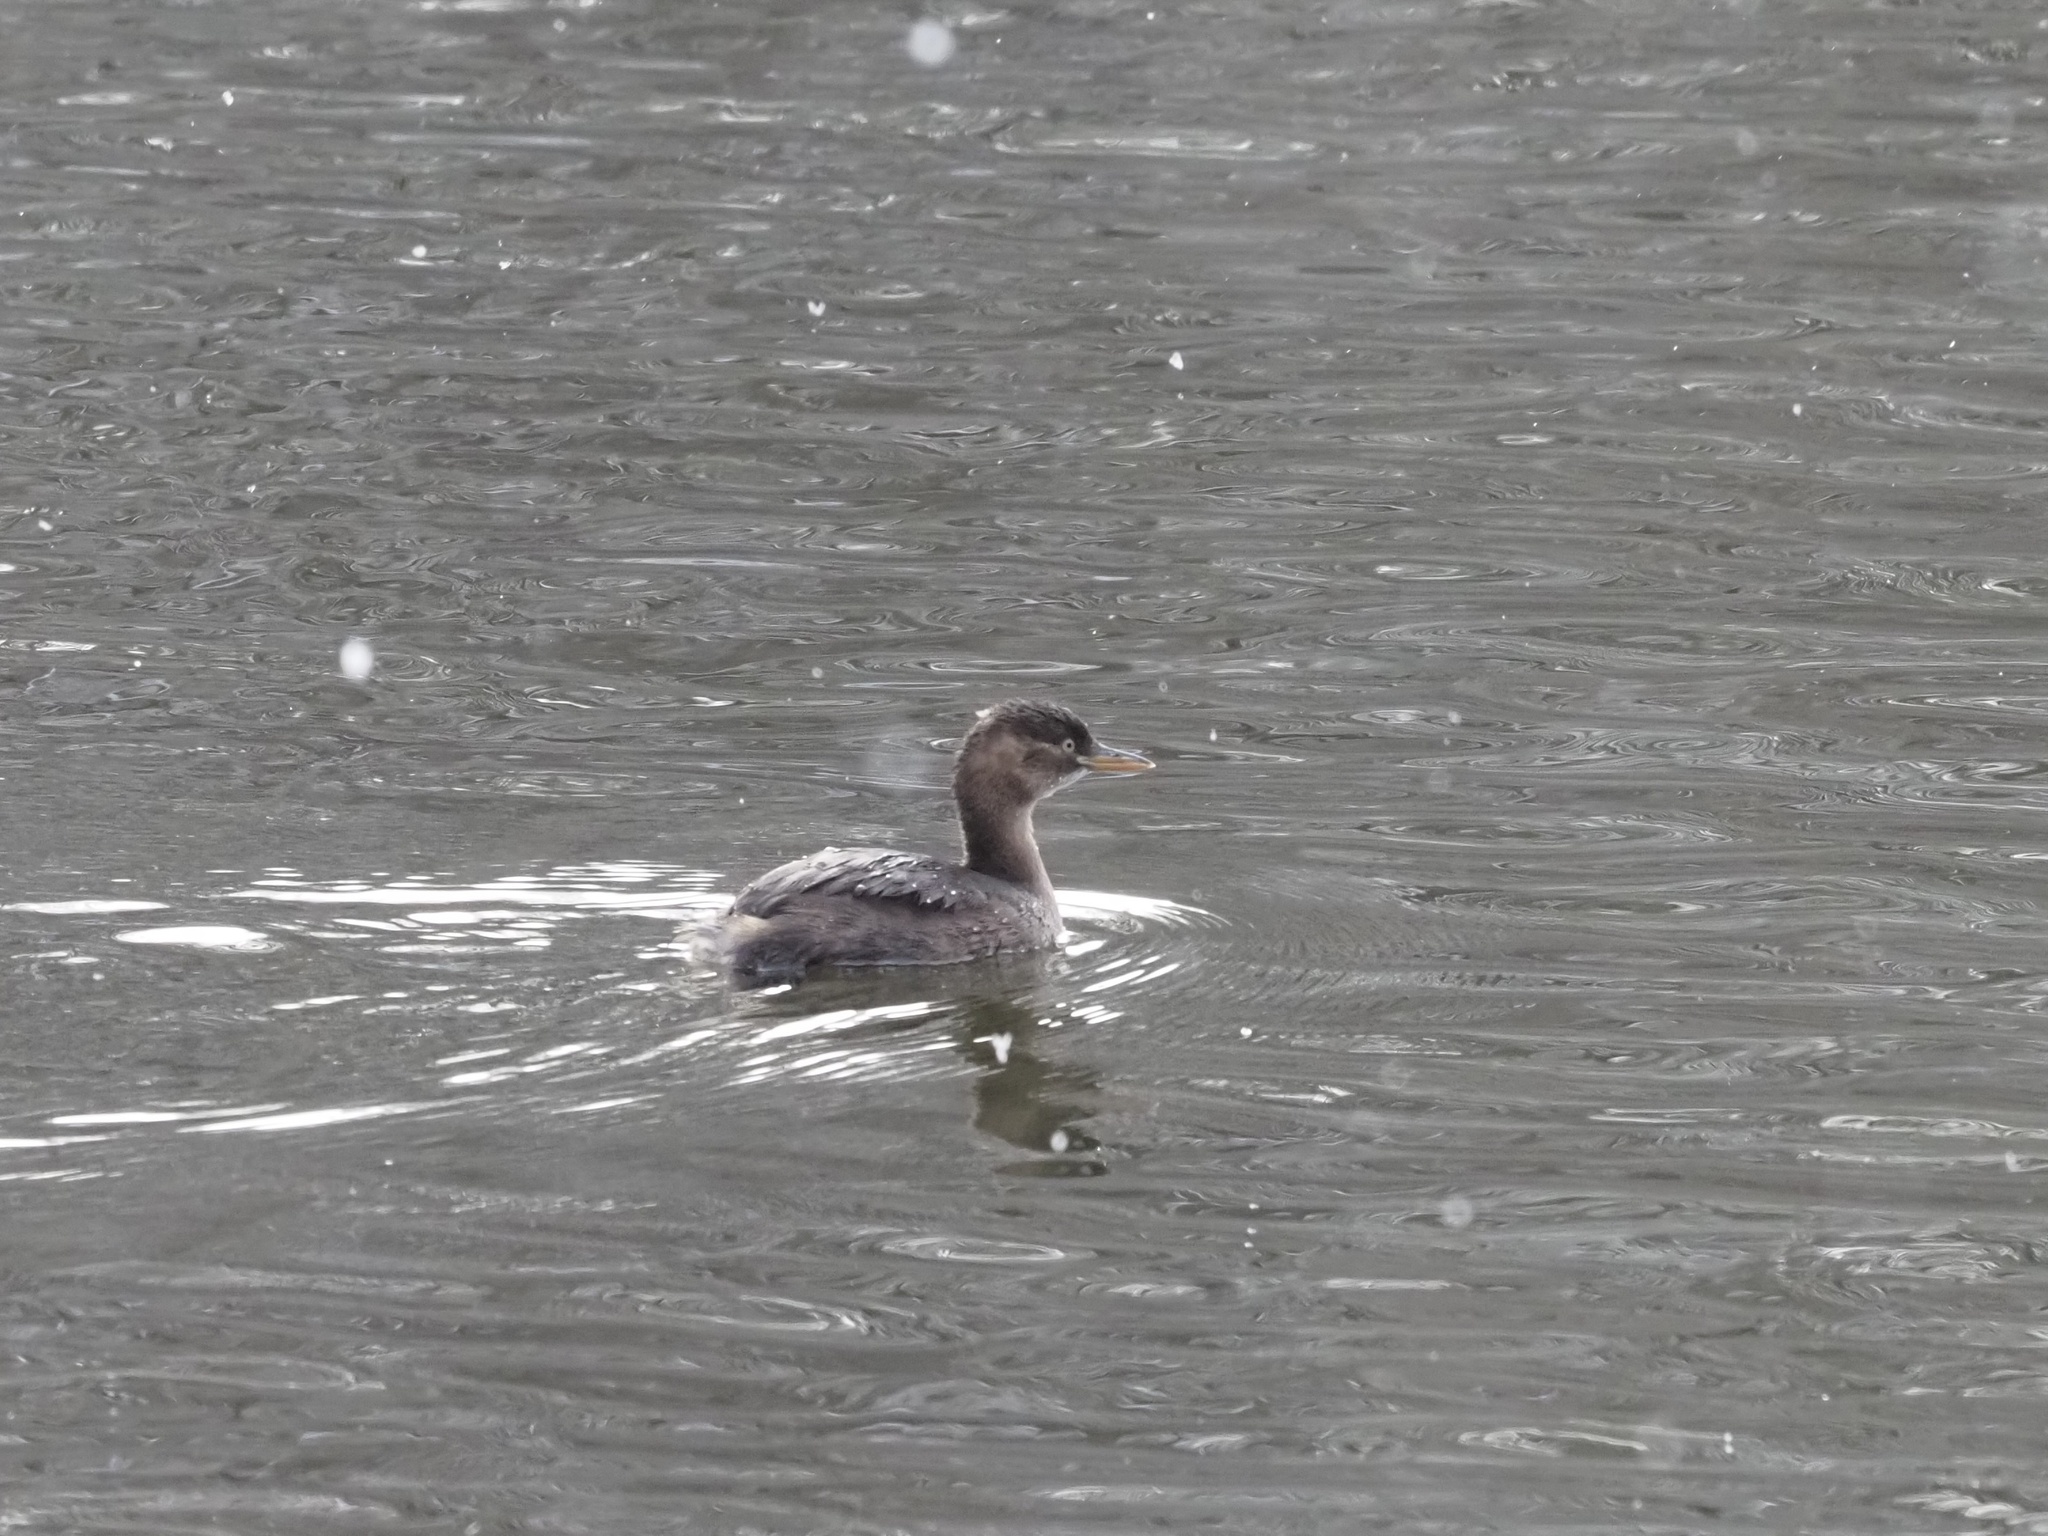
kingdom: Animalia
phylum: Chordata
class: Aves
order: Podicipediformes
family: Podicipedidae
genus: Tachybaptus
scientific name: Tachybaptus ruficollis
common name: Little grebe
